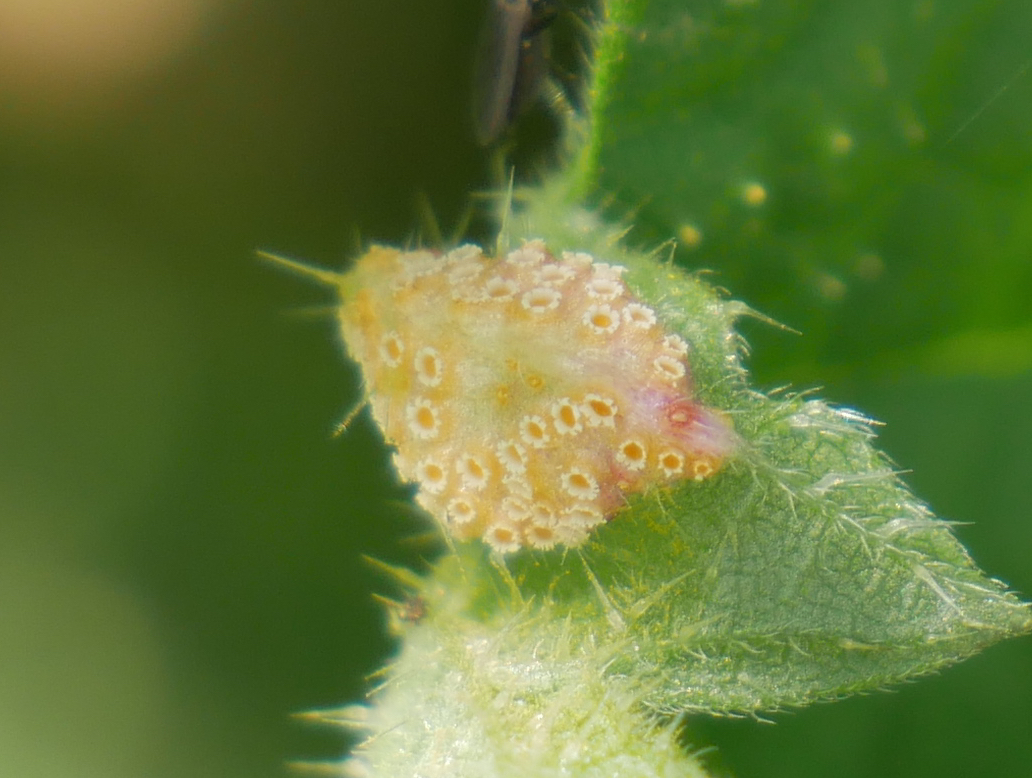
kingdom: Fungi
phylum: Basidiomycota
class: Pucciniomycetes
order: Pucciniales
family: Pucciniaceae
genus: Puccinia
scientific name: Puccinia urticata
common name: Nettle clustercup rust fungus
